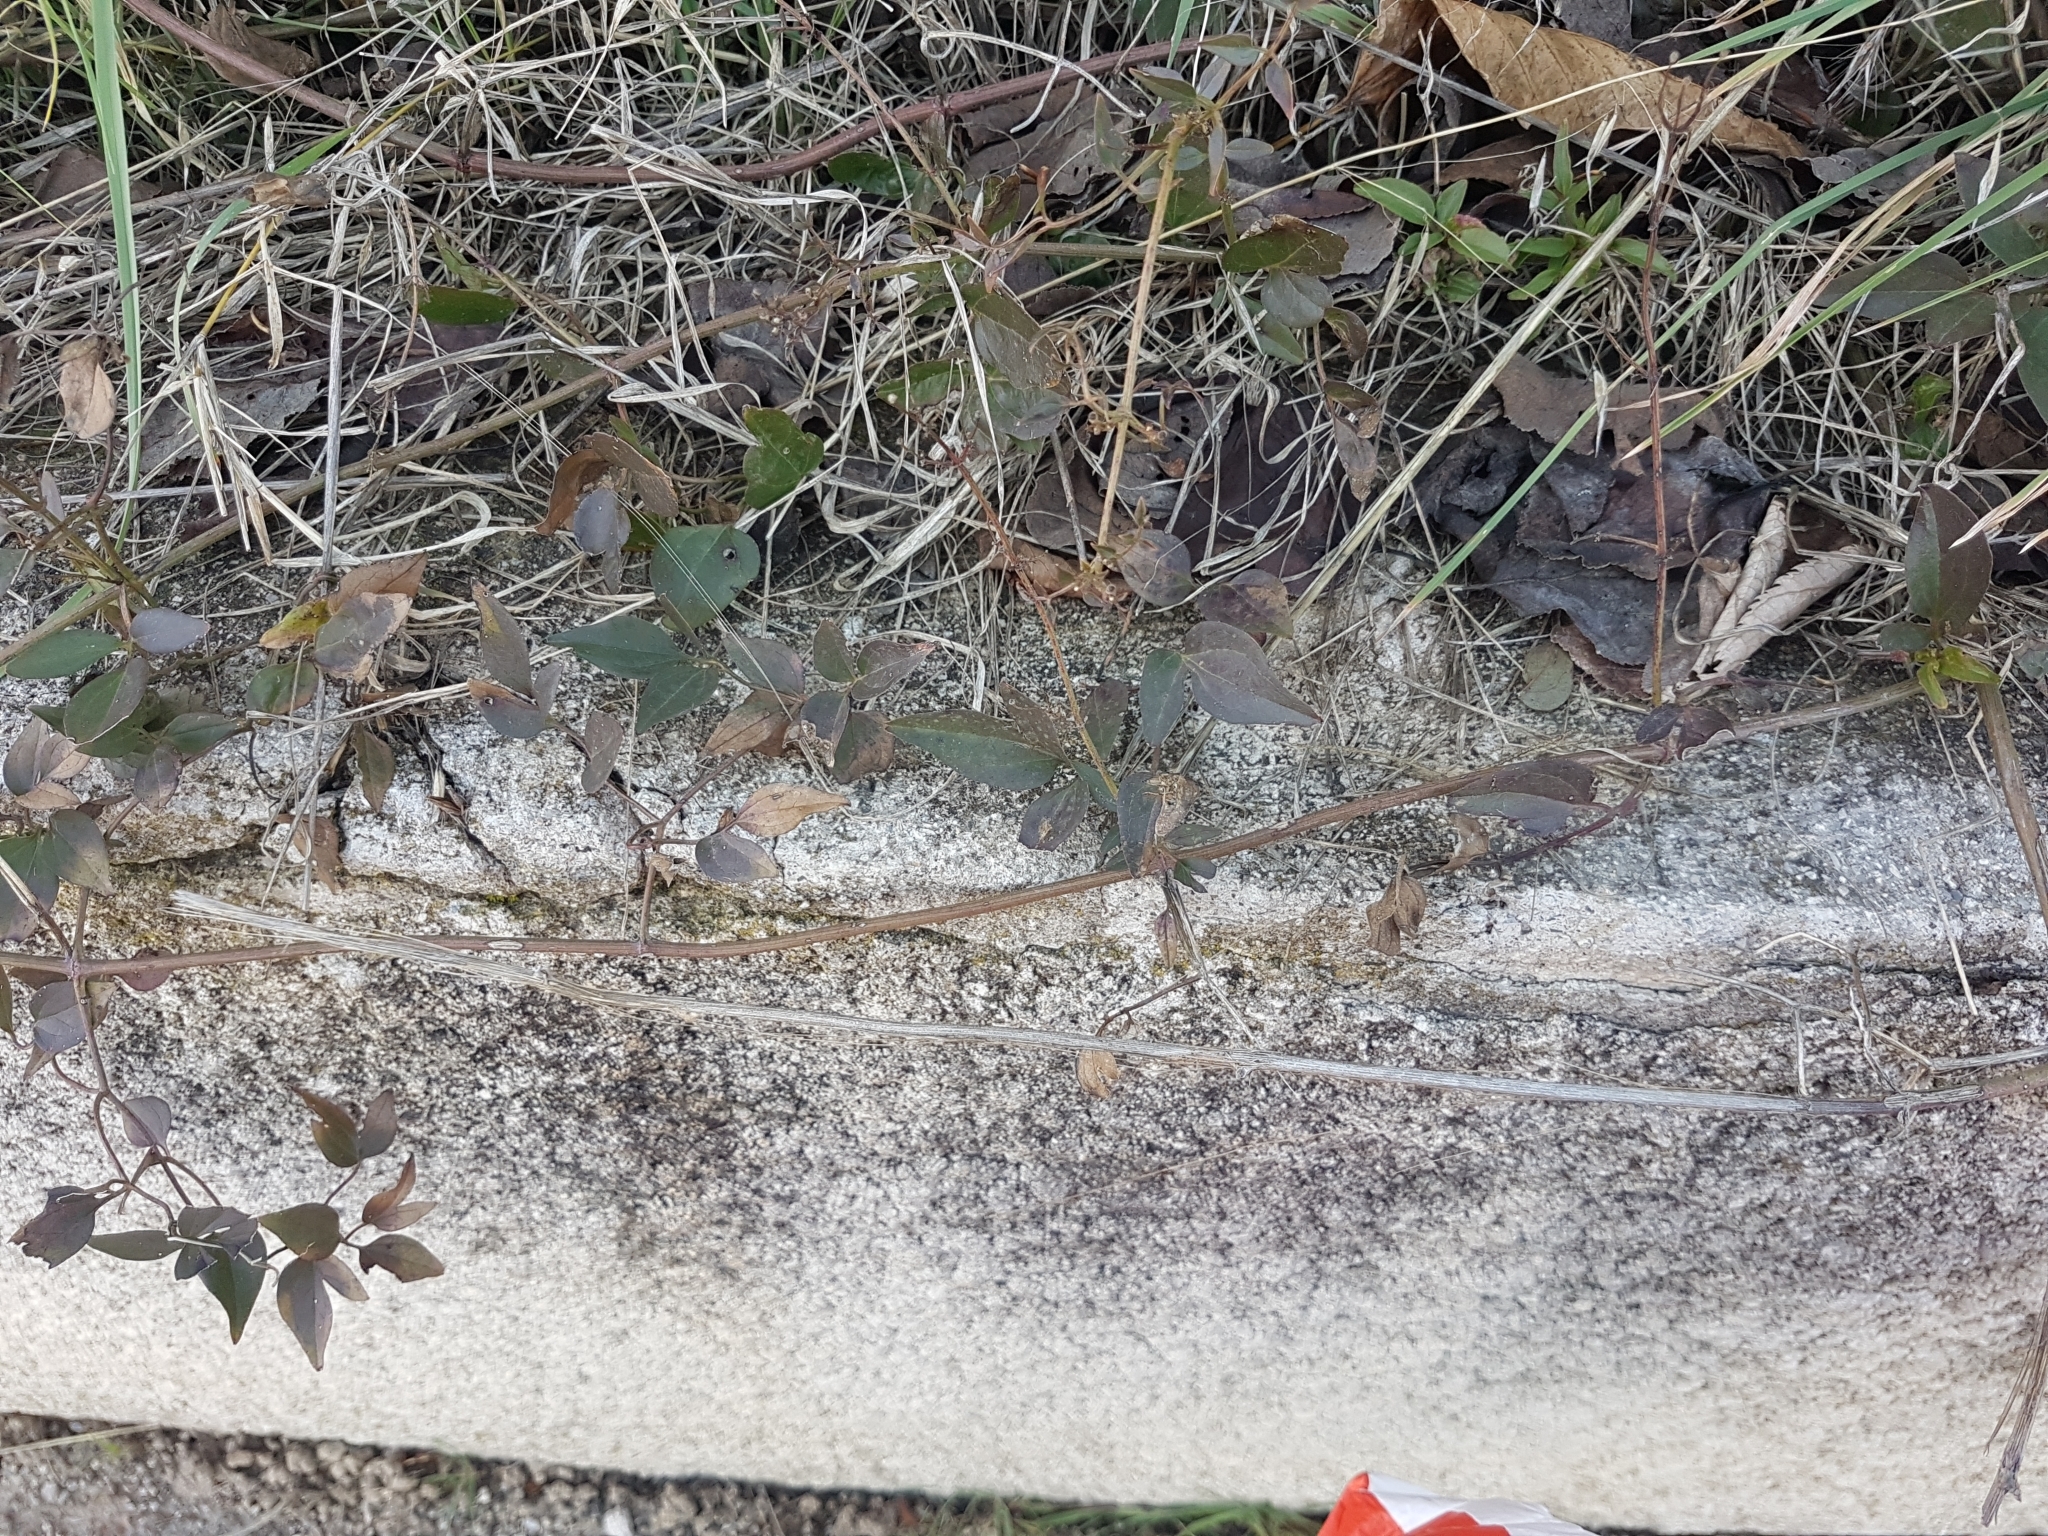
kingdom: Plantae
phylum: Tracheophyta
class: Magnoliopsida
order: Ranunculales
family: Ranunculaceae
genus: Clematis
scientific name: Clematis flammula
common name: Virgin's-bower
